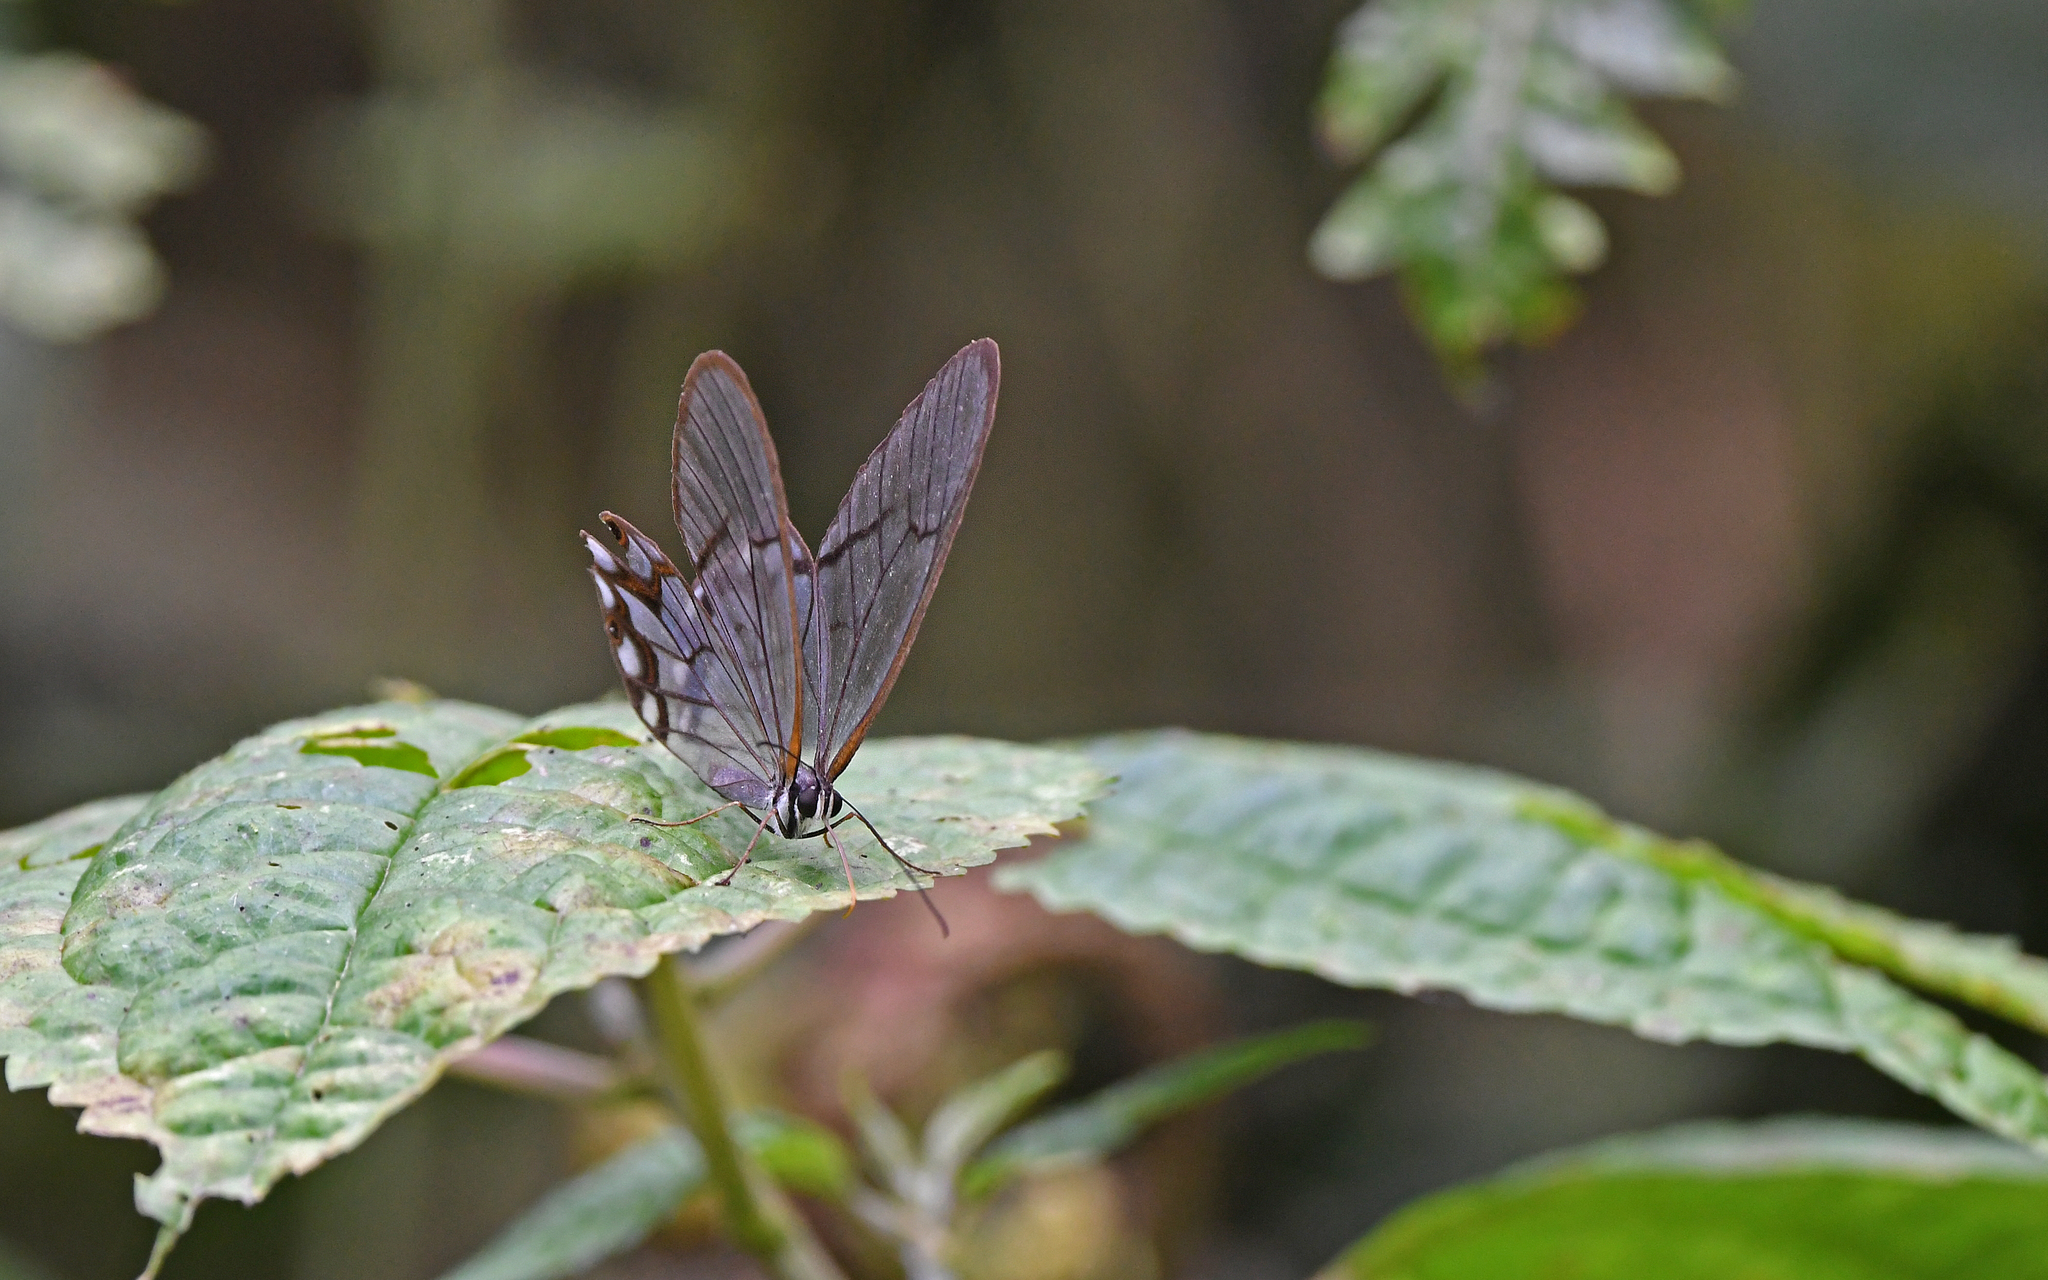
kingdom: Animalia
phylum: Arthropoda
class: Insecta
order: Lepidoptera
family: Nymphalidae
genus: Pseudohaetera
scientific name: Pseudohaetera hypaesia
